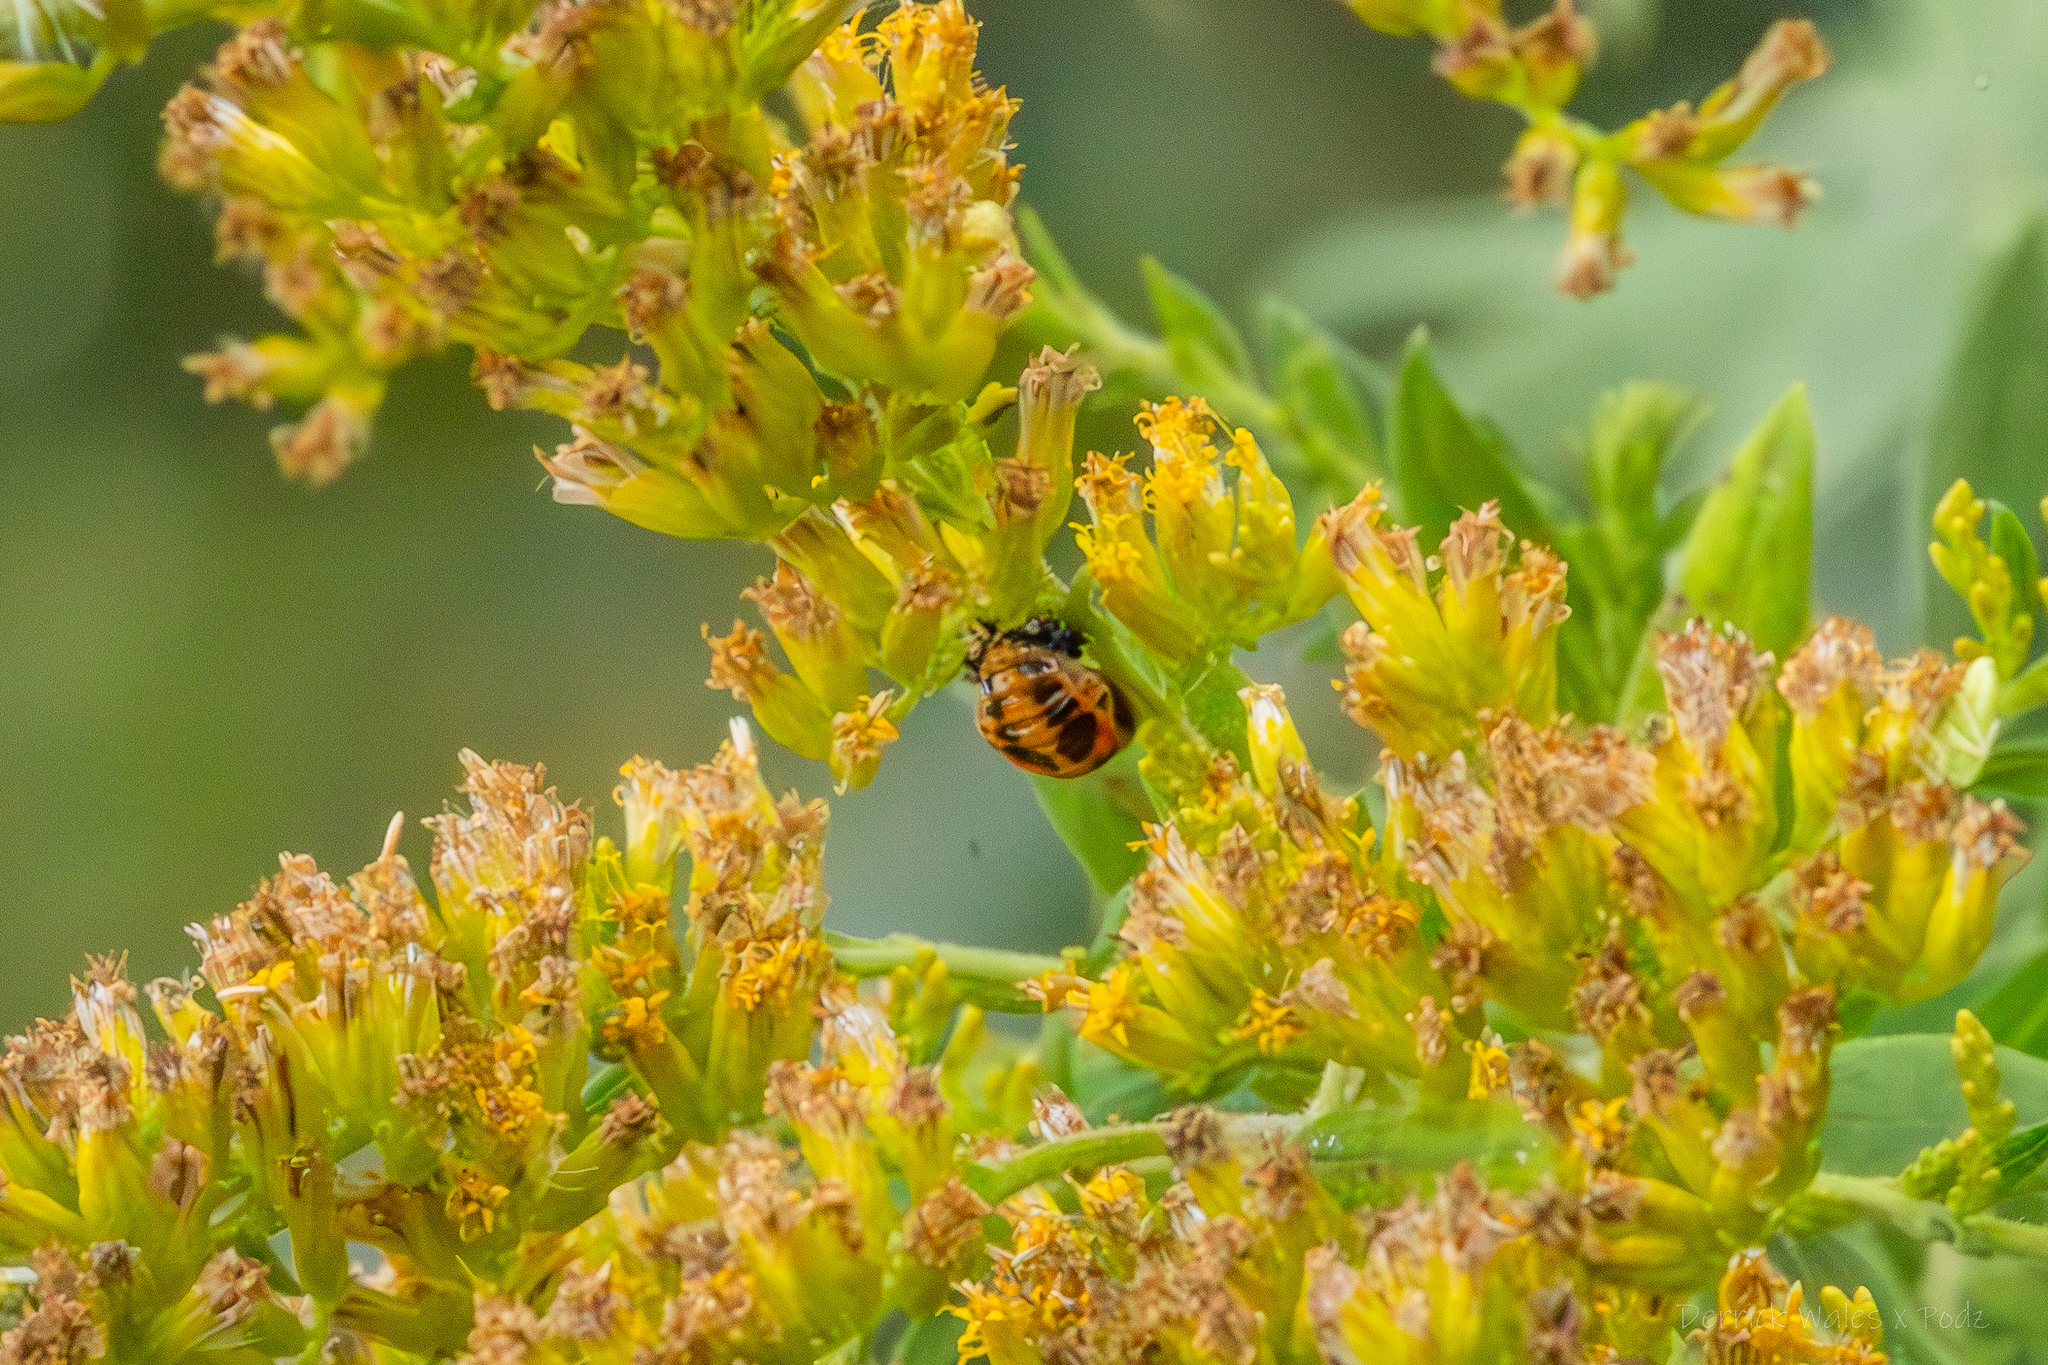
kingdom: Animalia
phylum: Arthropoda
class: Insecta
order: Coleoptera
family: Coccinellidae
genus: Harmonia
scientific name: Harmonia axyridis
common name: Harlequin ladybird
